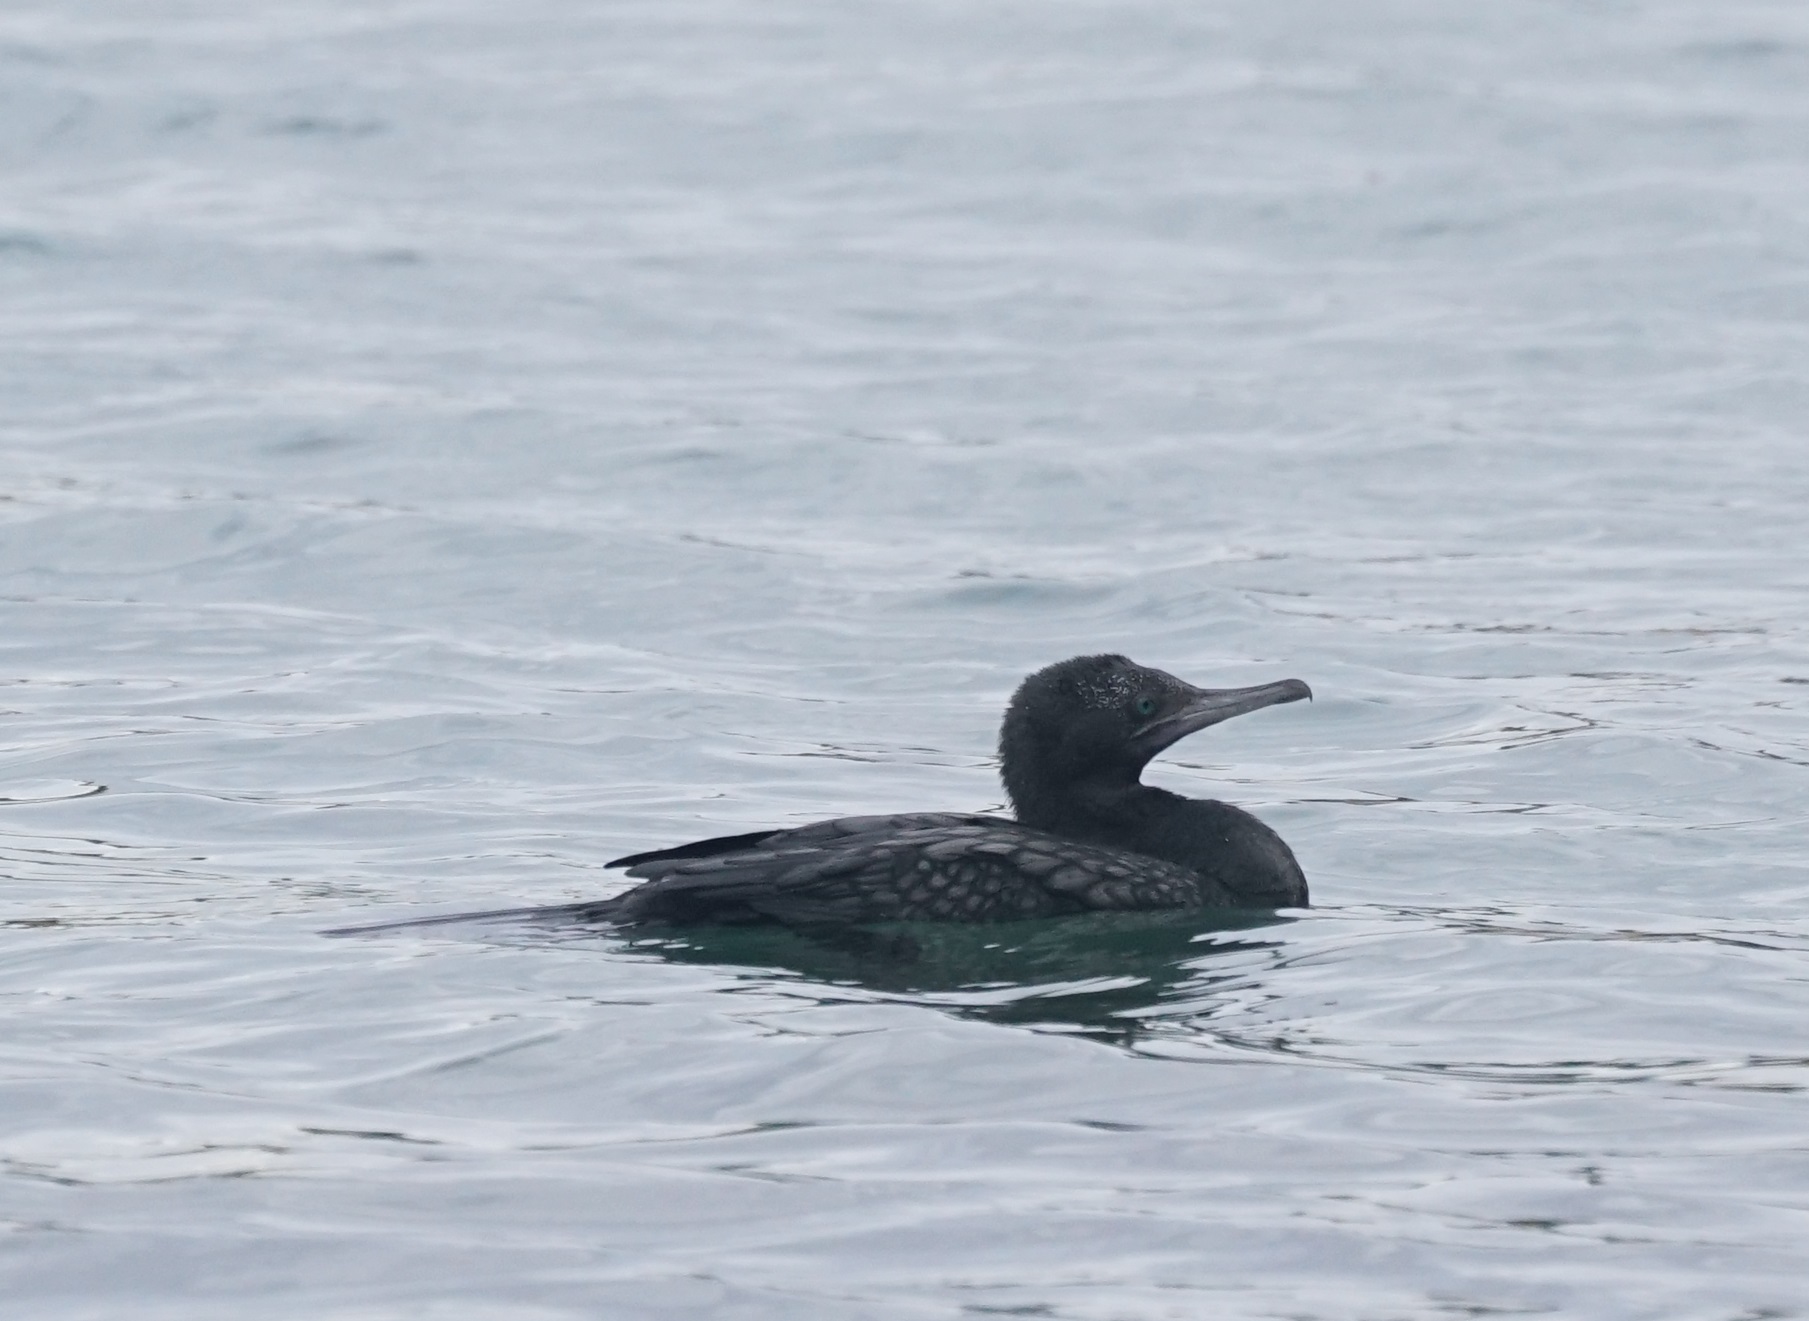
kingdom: Animalia
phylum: Chordata
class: Aves
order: Suliformes
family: Phalacrocoracidae
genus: Phalacrocorax
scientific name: Phalacrocorax sulcirostris
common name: Little black cormorant
